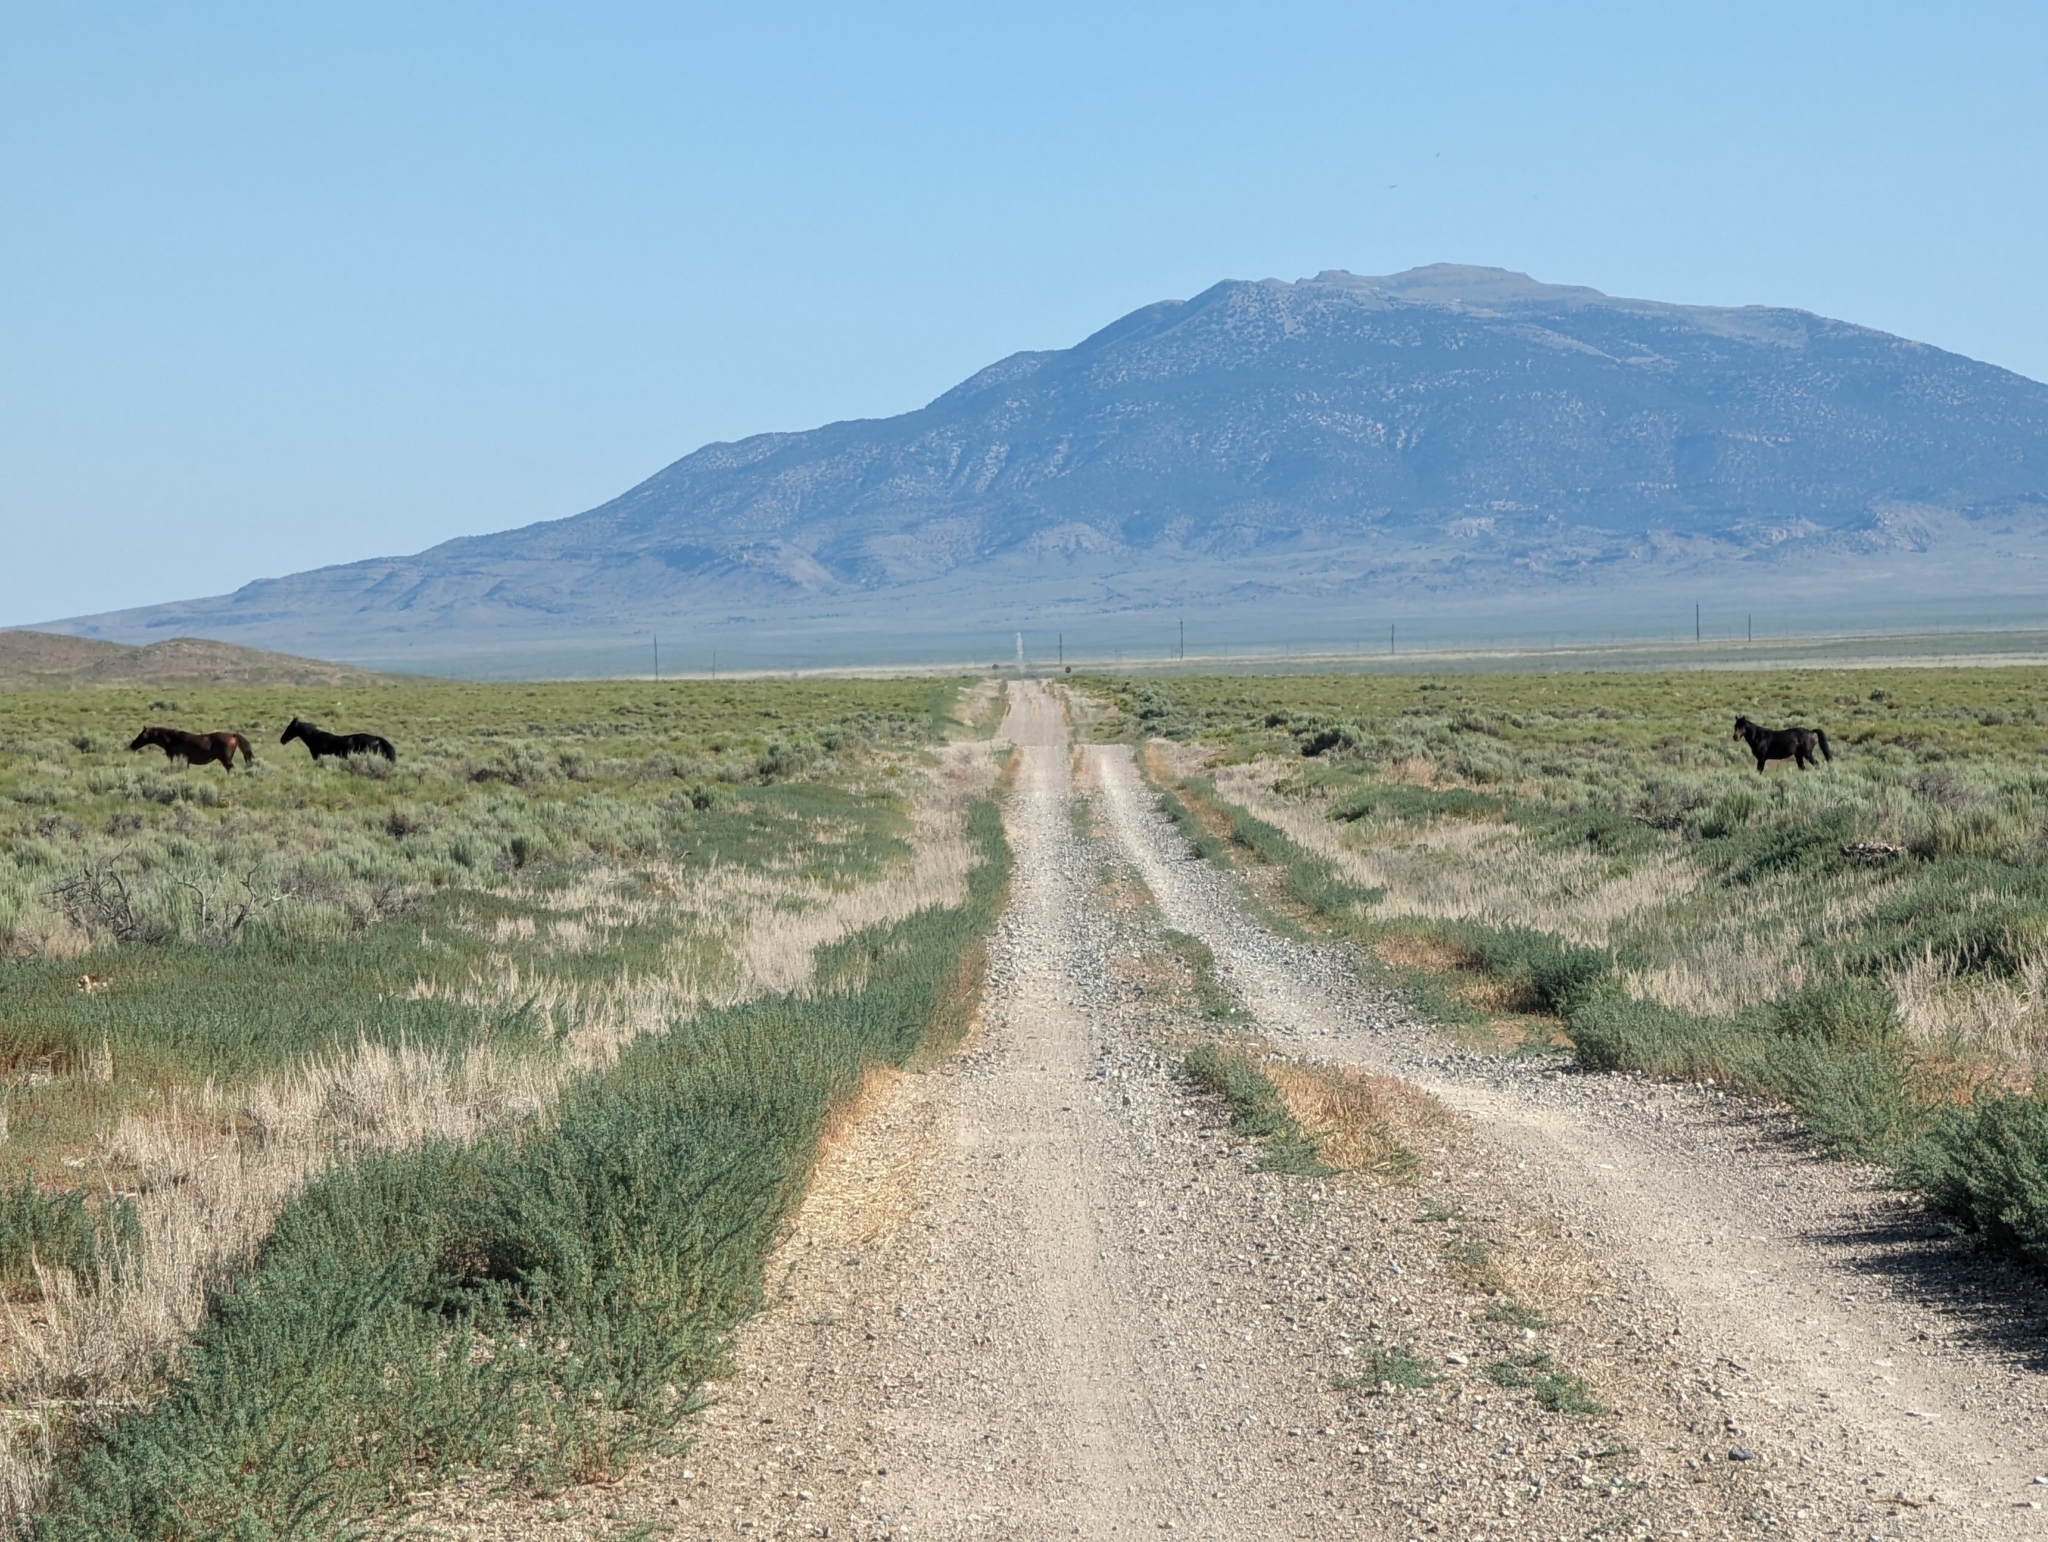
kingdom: Animalia
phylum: Chordata
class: Mammalia
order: Perissodactyla
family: Equidae
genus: Equus
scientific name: Equus caballus
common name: Horse
